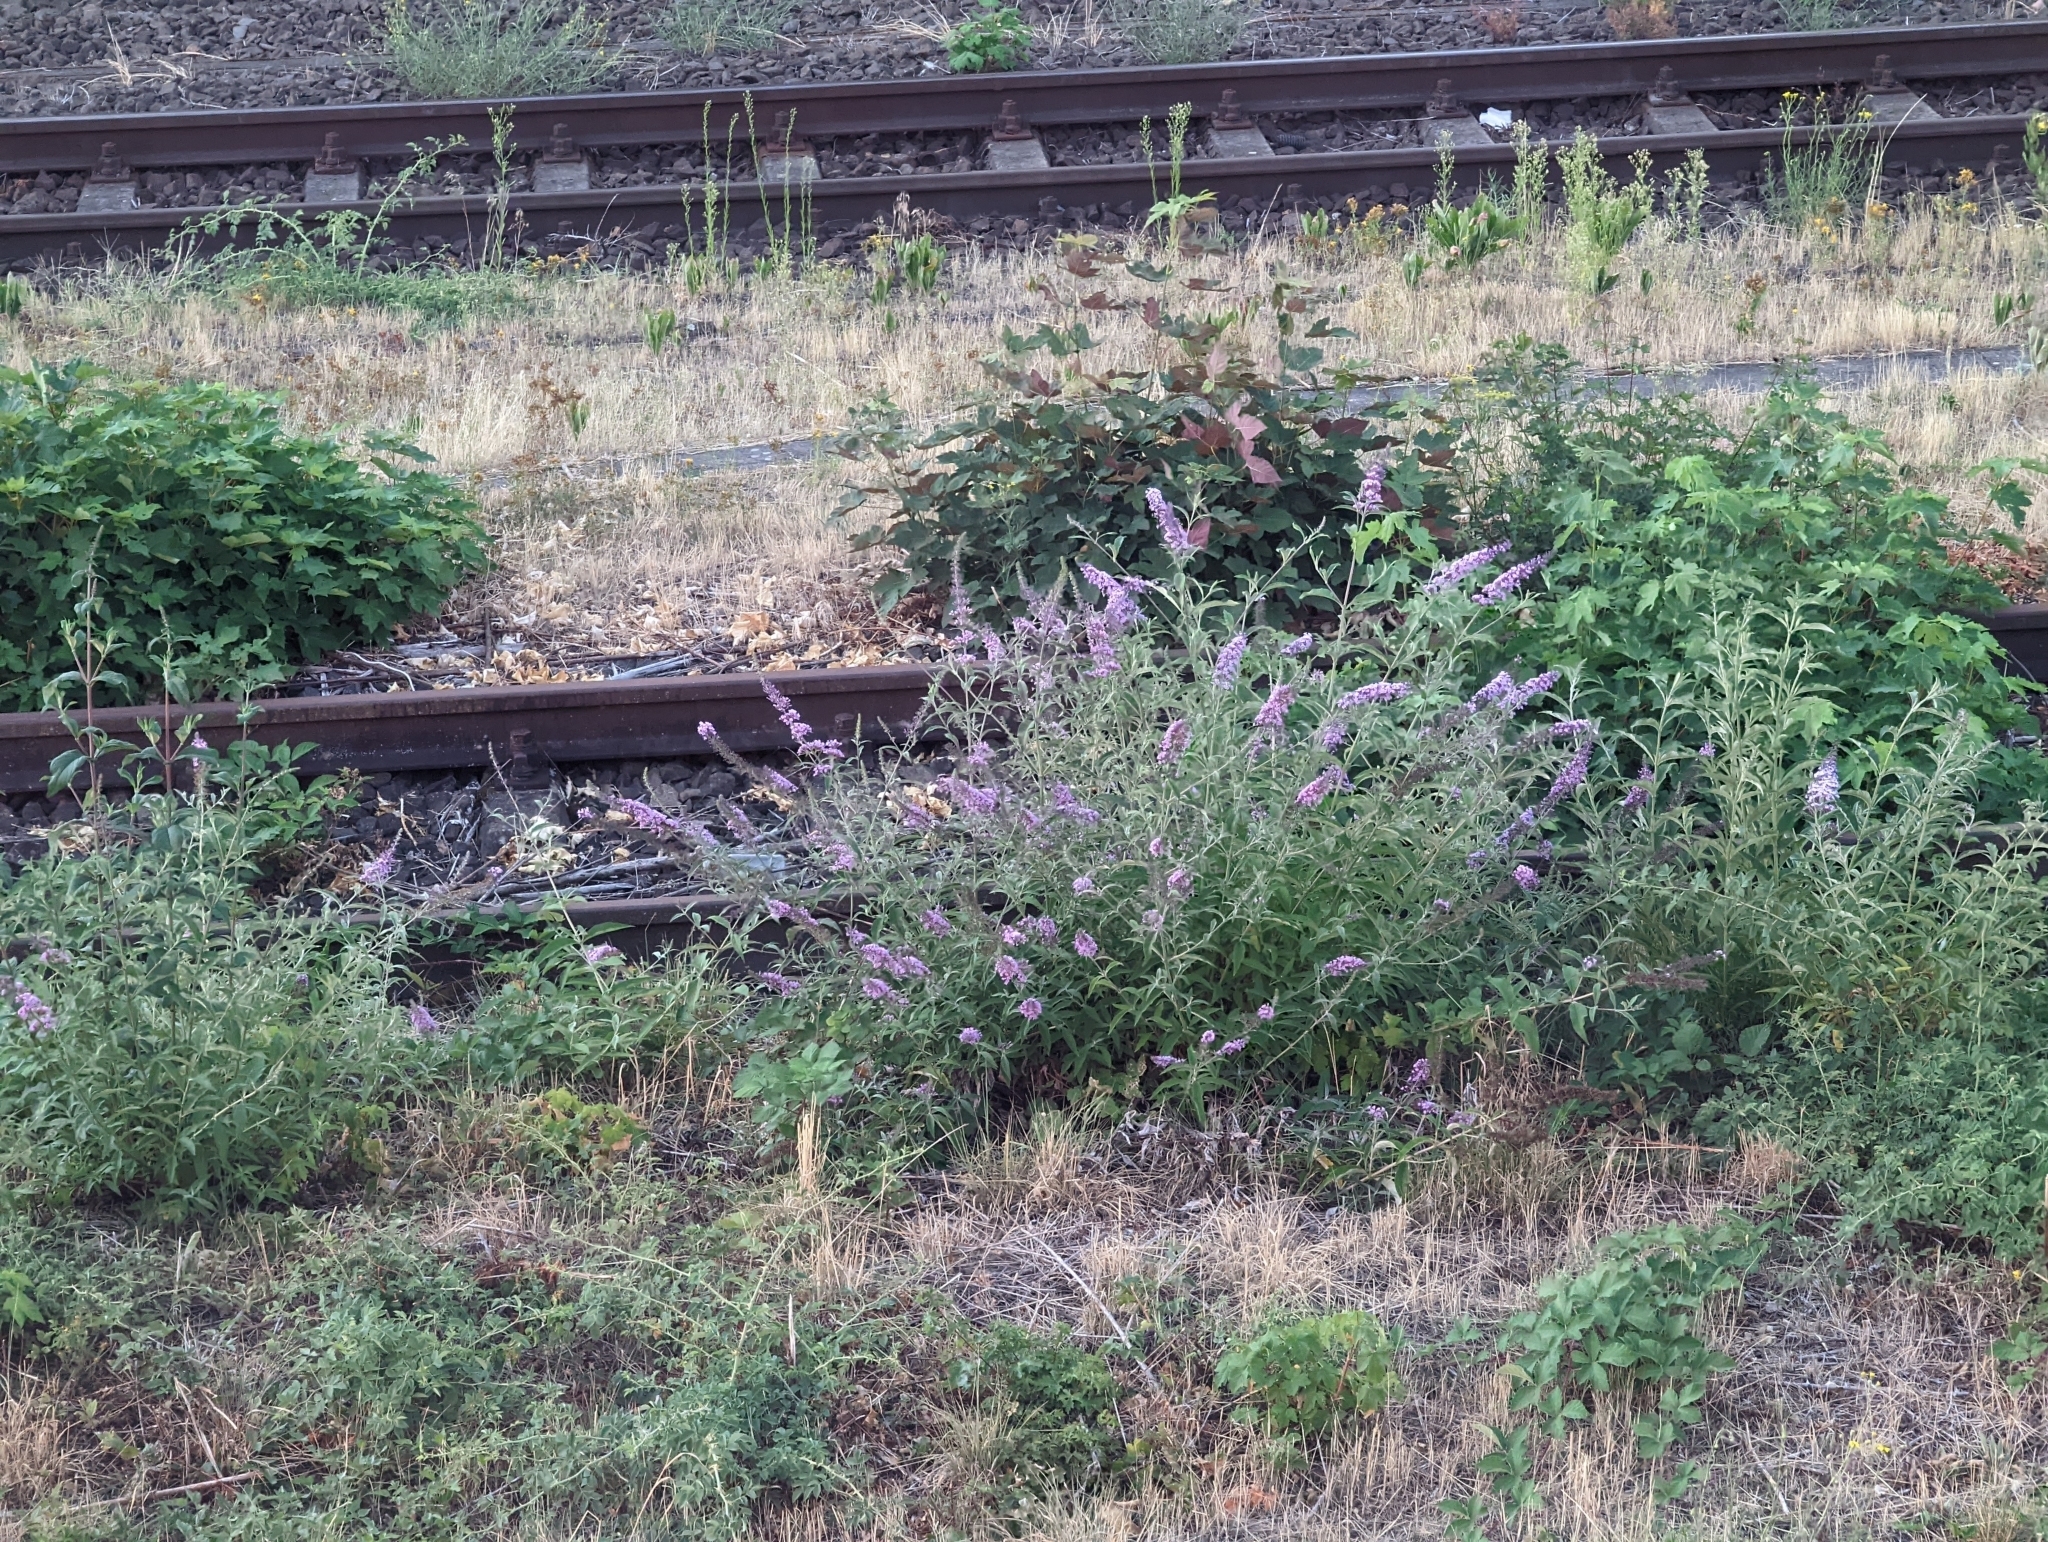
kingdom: Plantae
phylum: Tracheophyta
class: Magnoliopsida
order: Lamiales
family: Scrophulariaceae
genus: Buddleja
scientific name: Buddleja davidii
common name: Butterfly-bush
